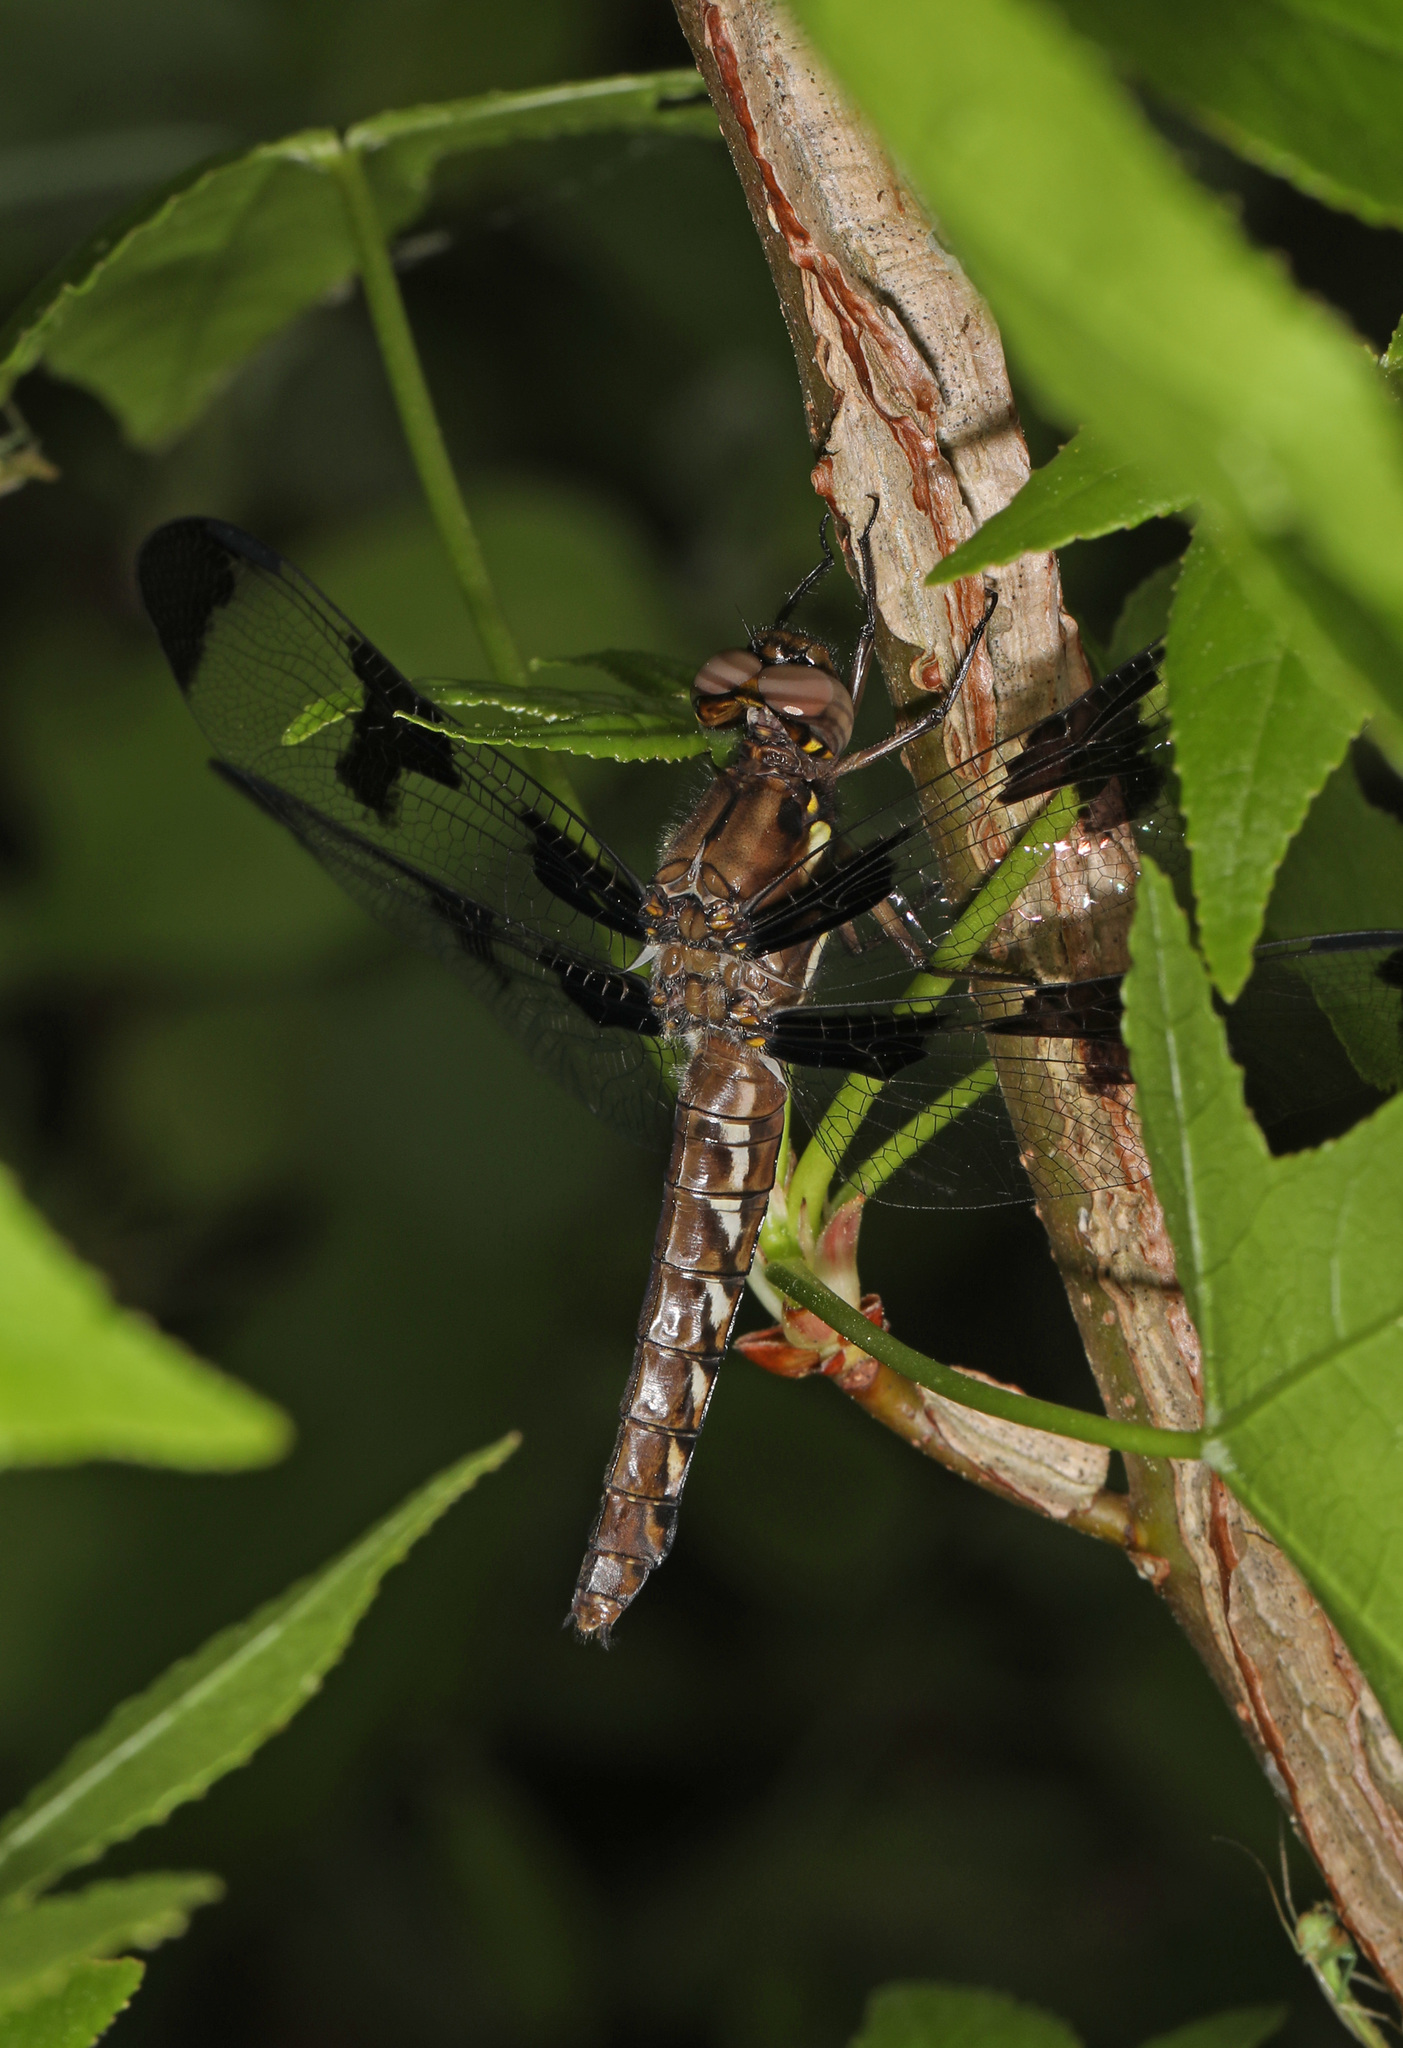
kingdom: Animalia
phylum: Arthropoda
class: Insecta
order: Odonata
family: Libellulidae
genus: Plathemis
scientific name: Plathemis lydia
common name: Common whitetail
